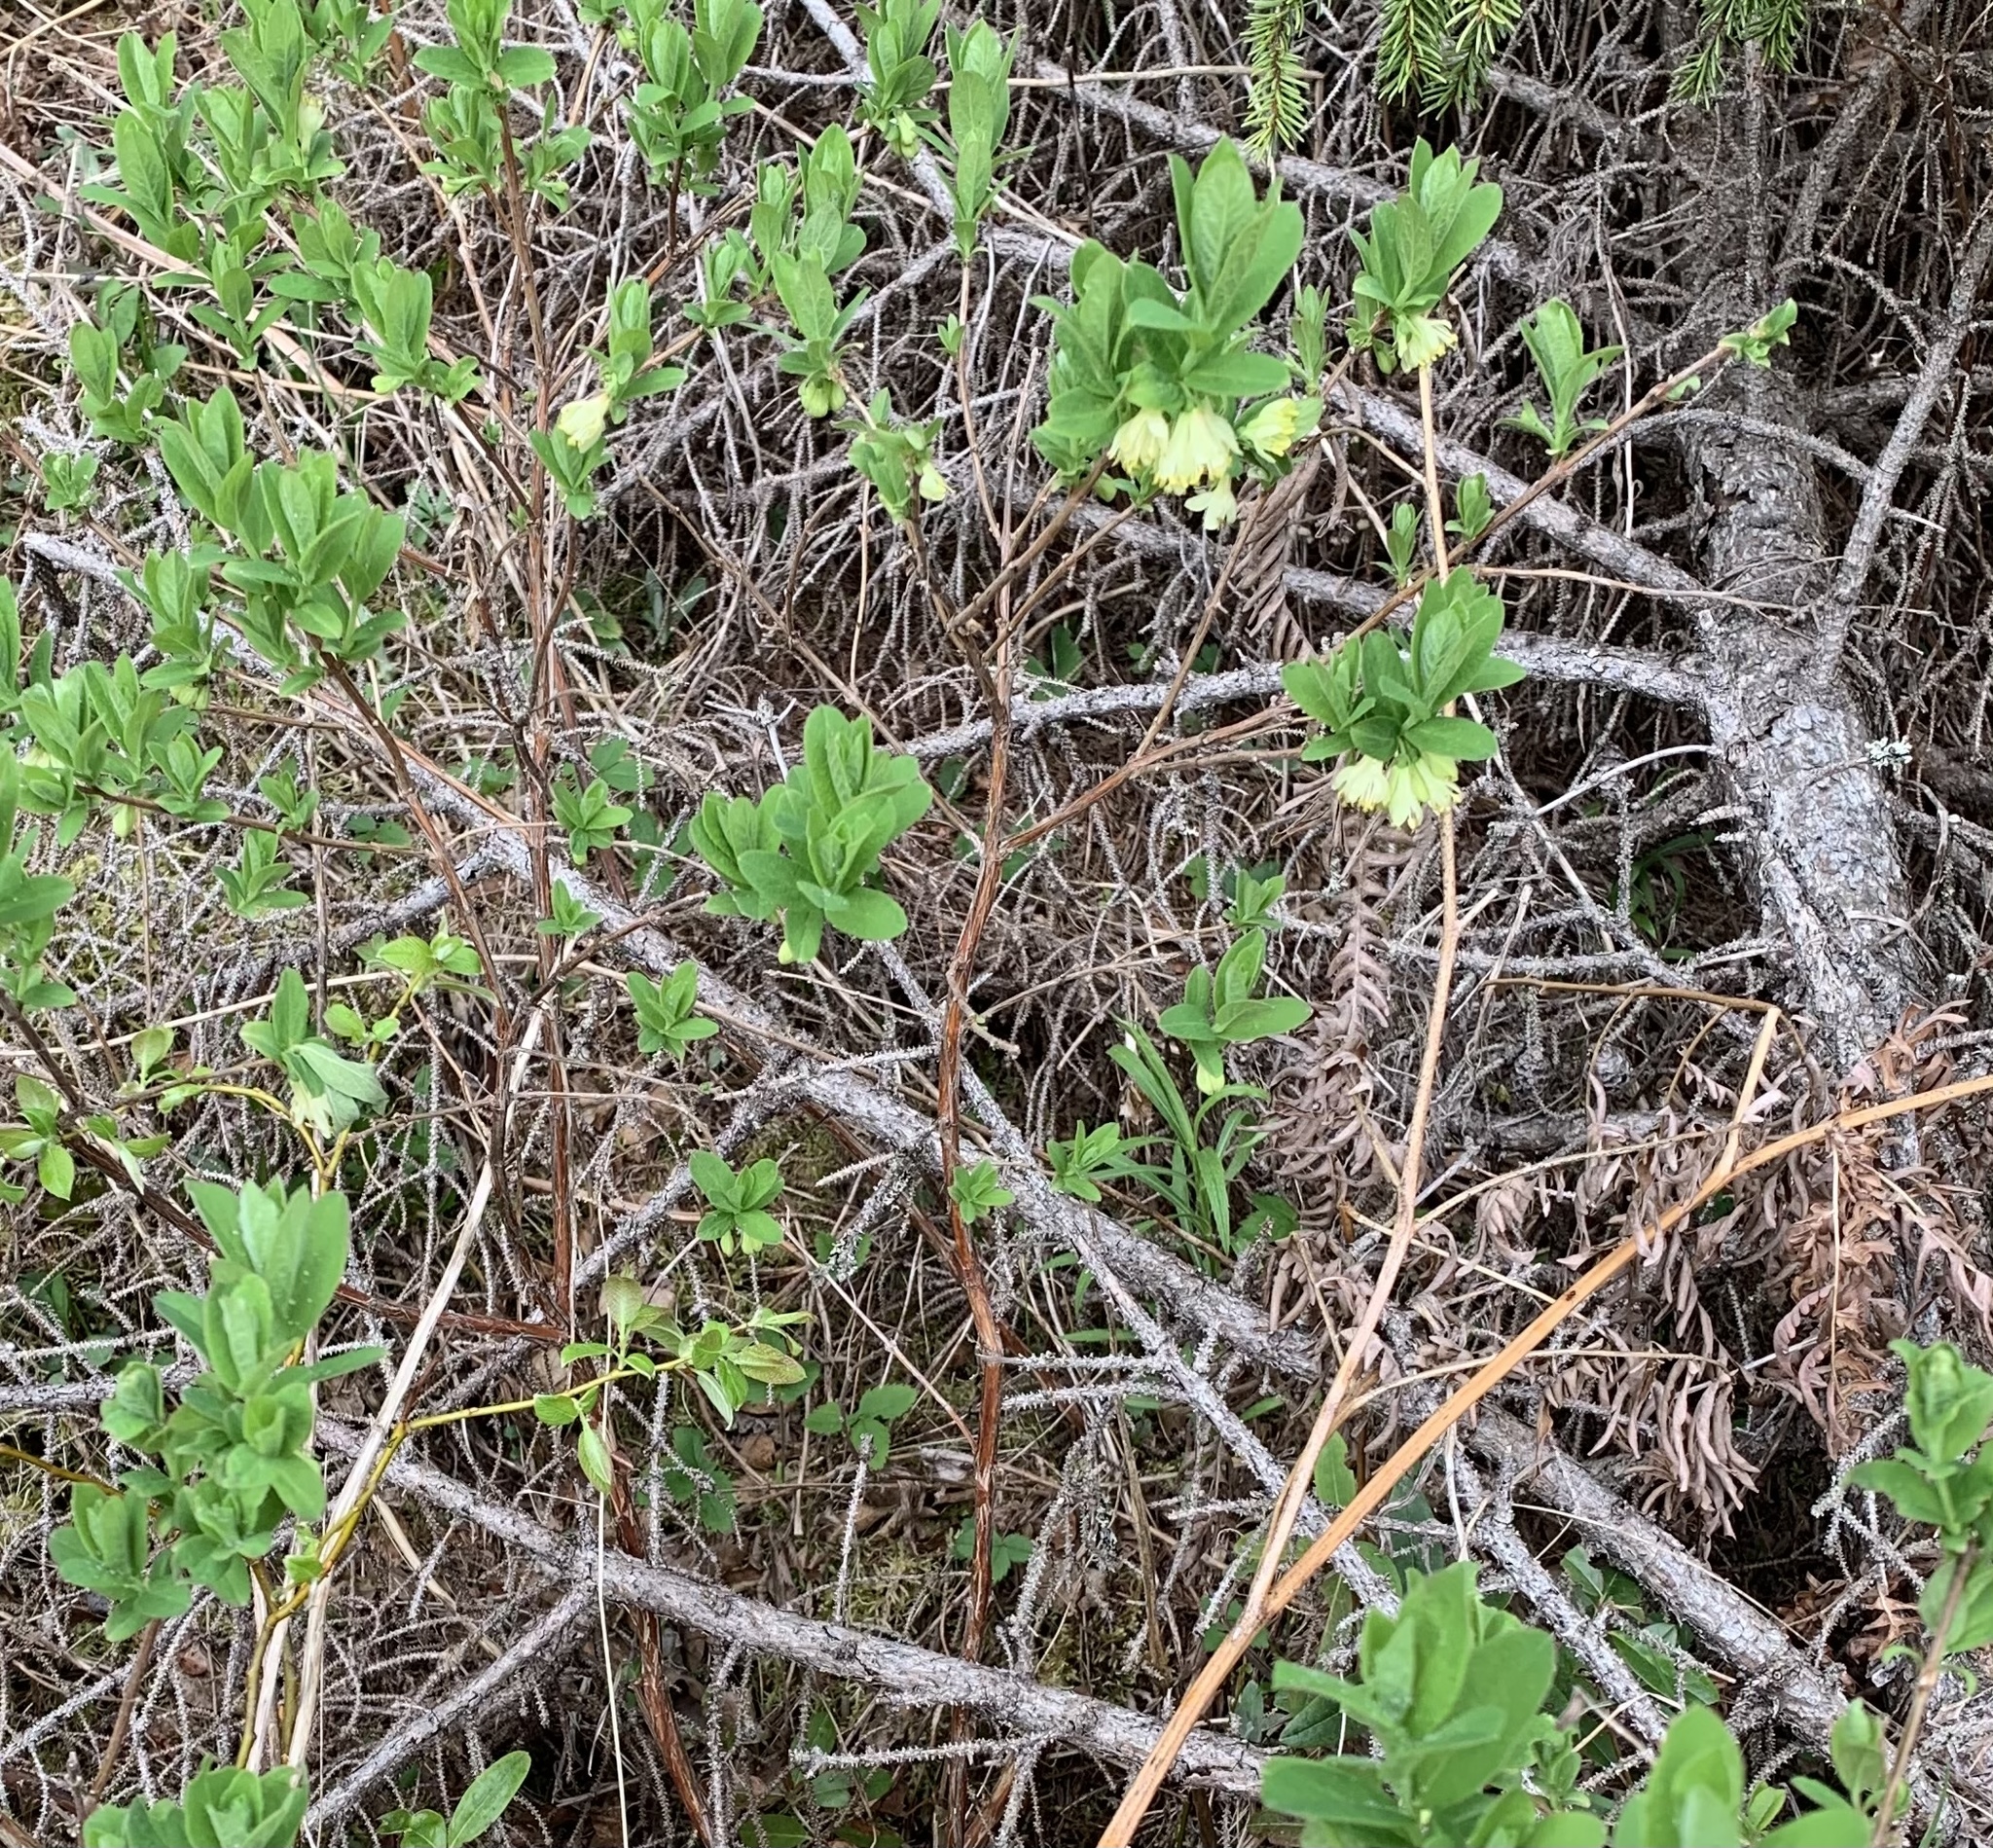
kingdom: Plantae
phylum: Tracheophyta
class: Magnoliopsida
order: Dipsacales
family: Caprifoliaceae
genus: Lonicera
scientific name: Lonicera villosa
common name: Mountain fly-honeysuckle
